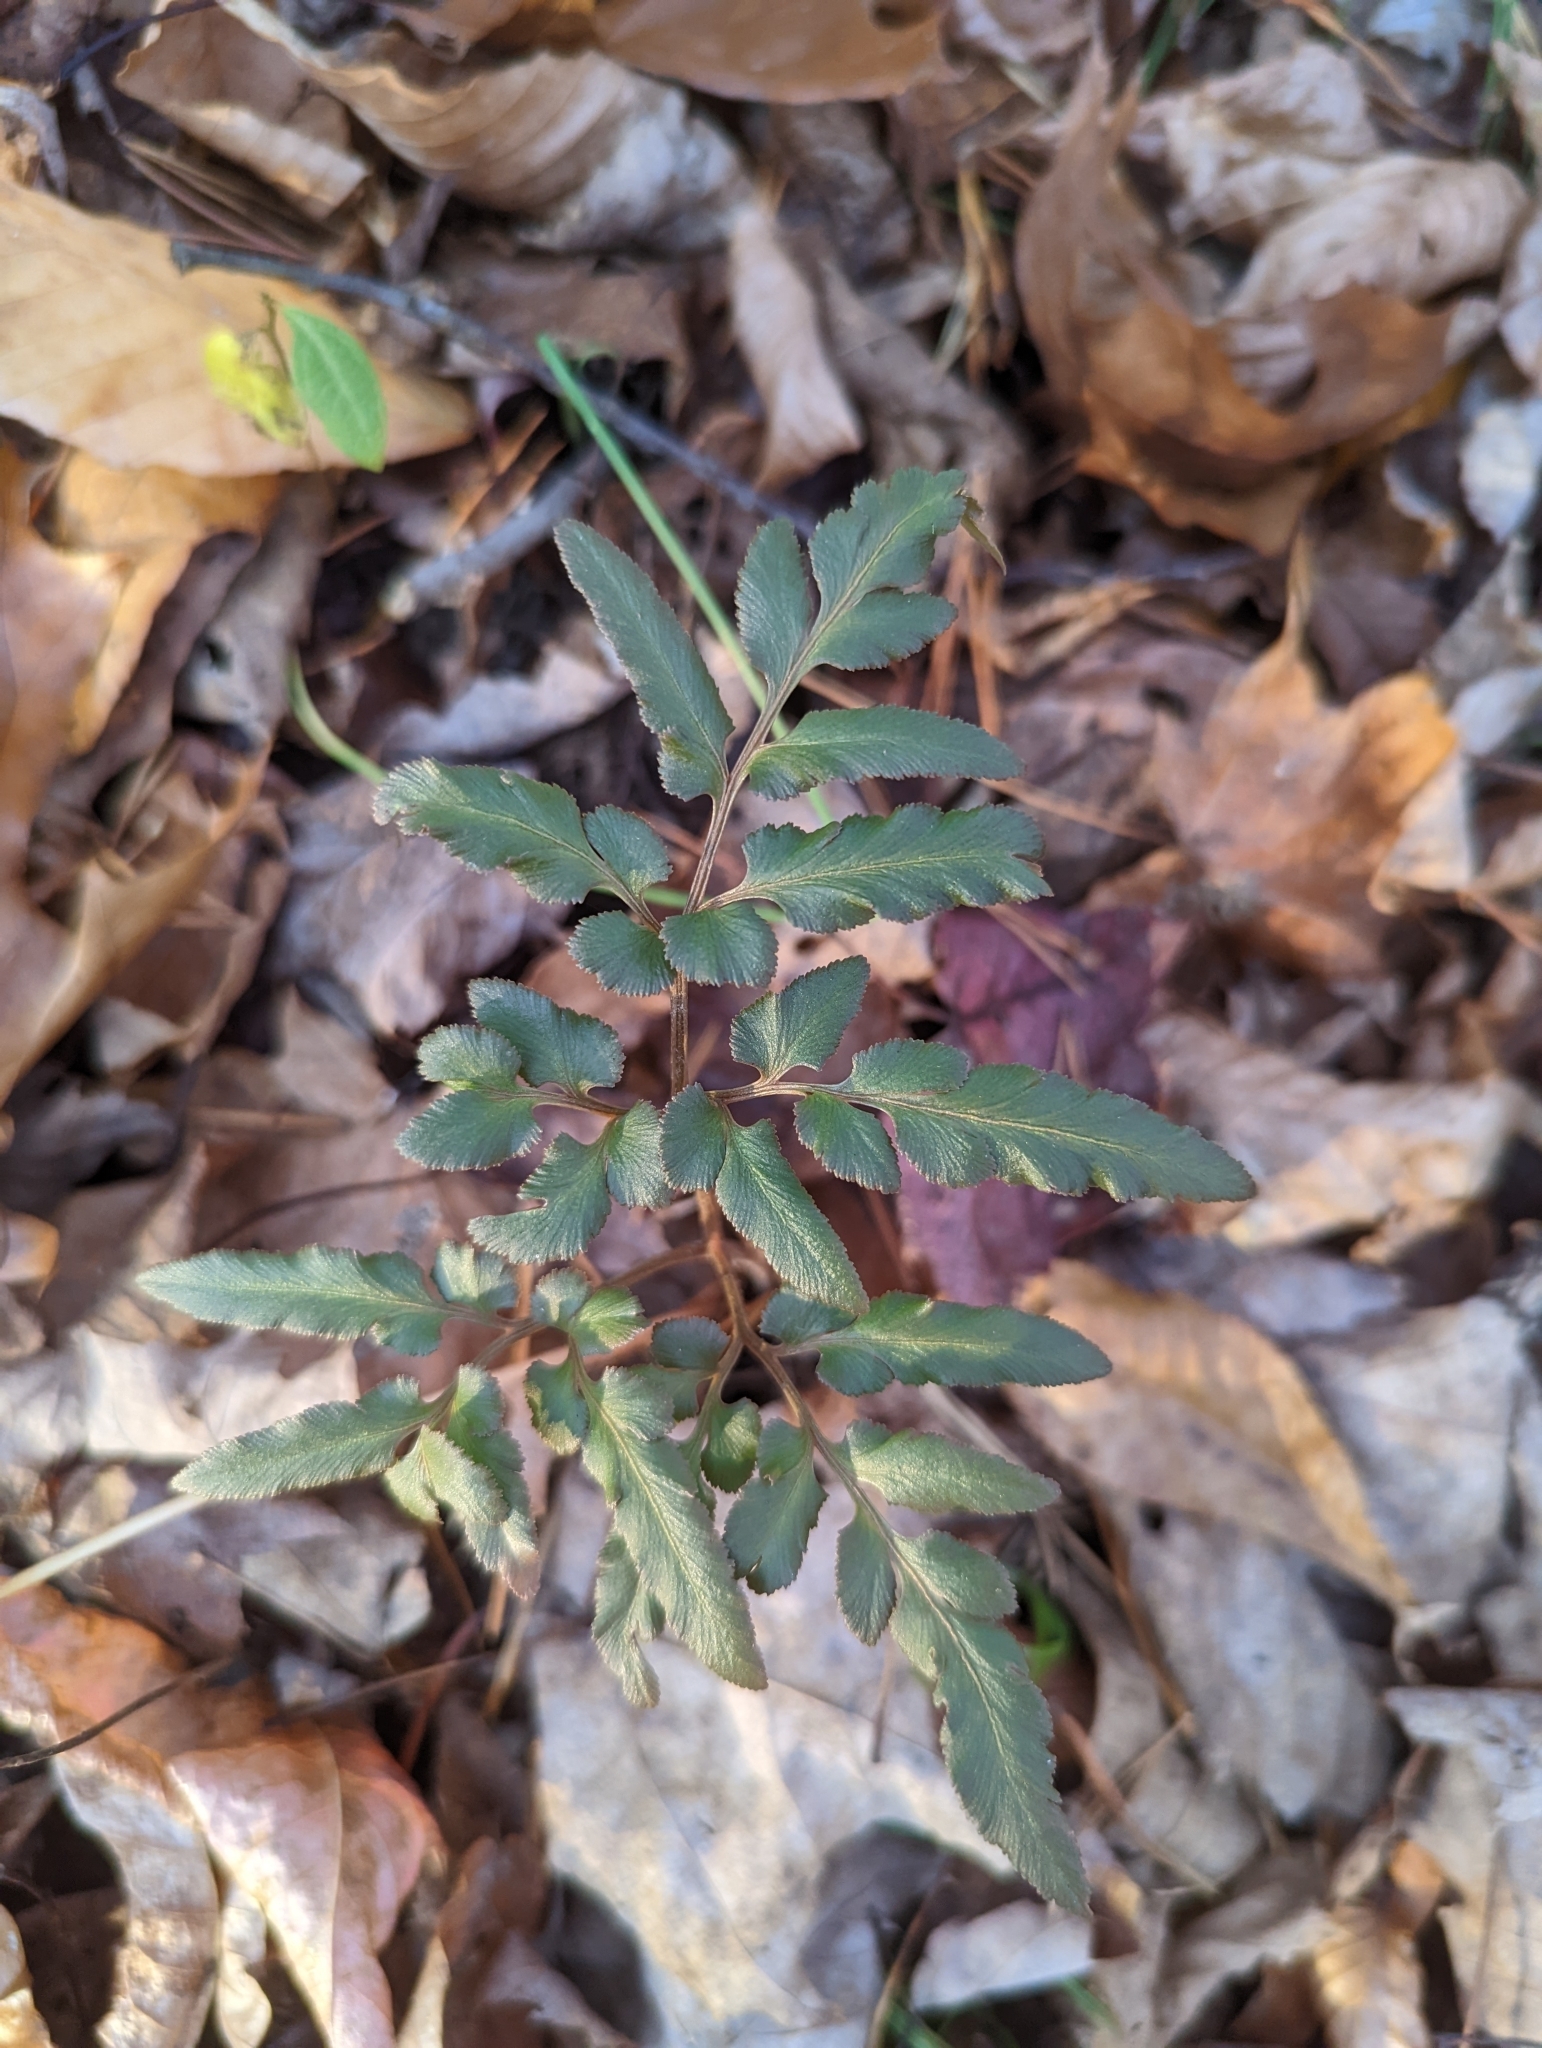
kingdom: Plantae
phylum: Tracheophyta
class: Polypodiopsida
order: Ophioglossales
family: Ophioglossaceae
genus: Sceptridium
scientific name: Sceptridium dissectum
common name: Cut-leaved grapefern
